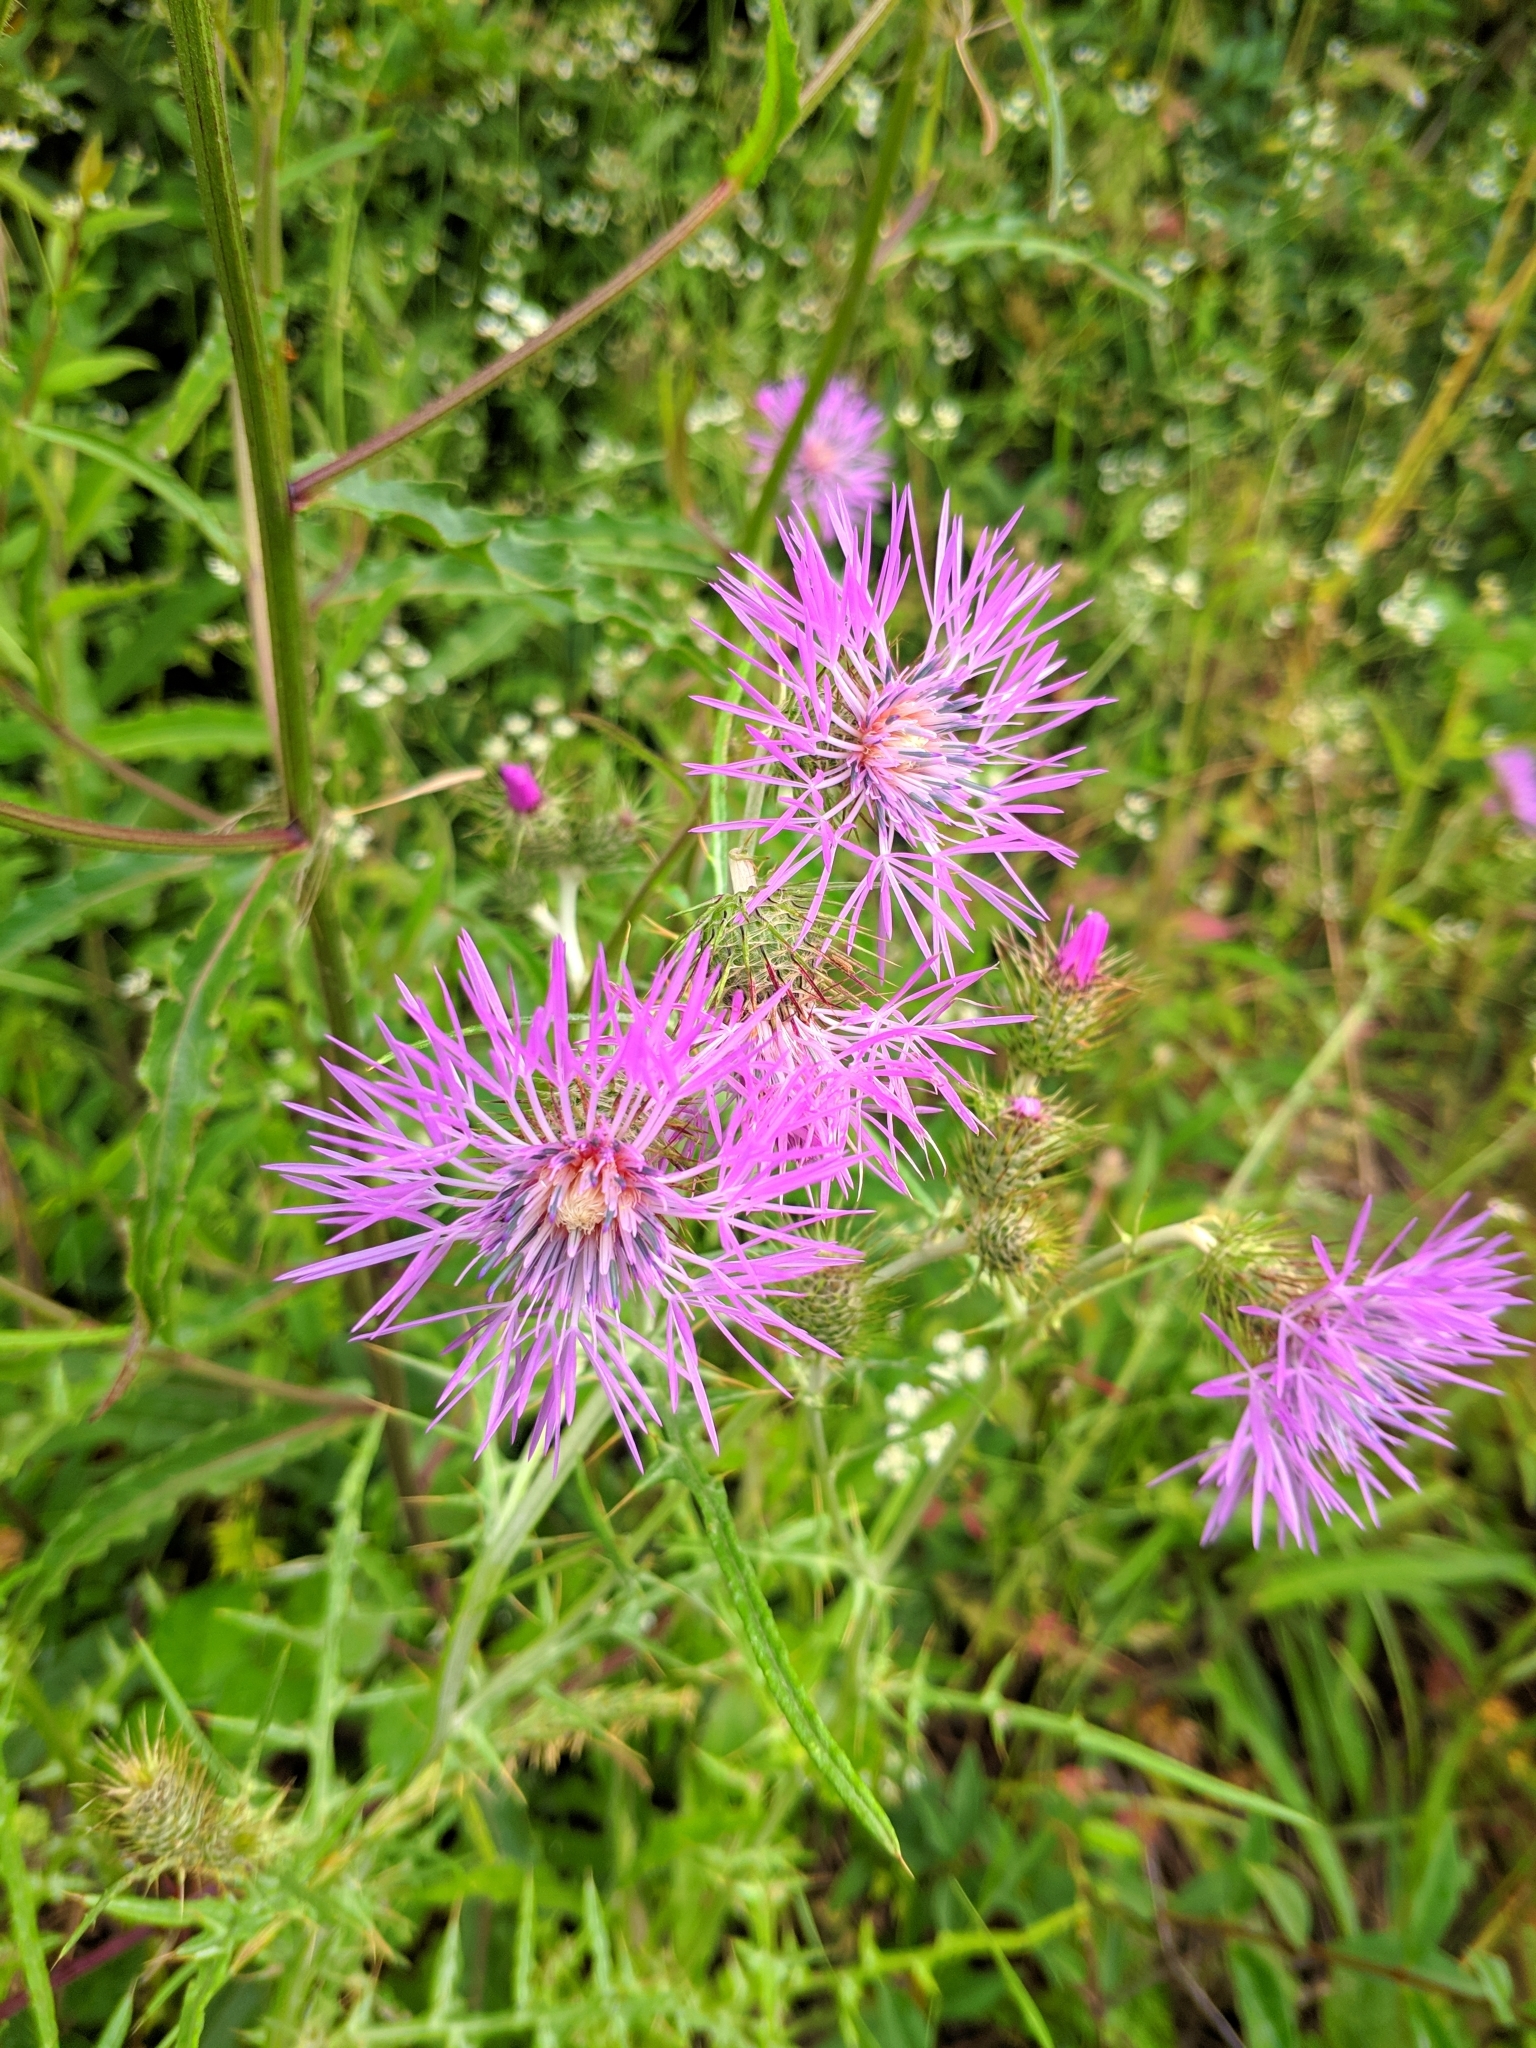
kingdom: Plantae
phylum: Tracheophyta
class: Magnoliopsida
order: Asterales
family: Asteraceae
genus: Galactites
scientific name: Galactites tomentosa
